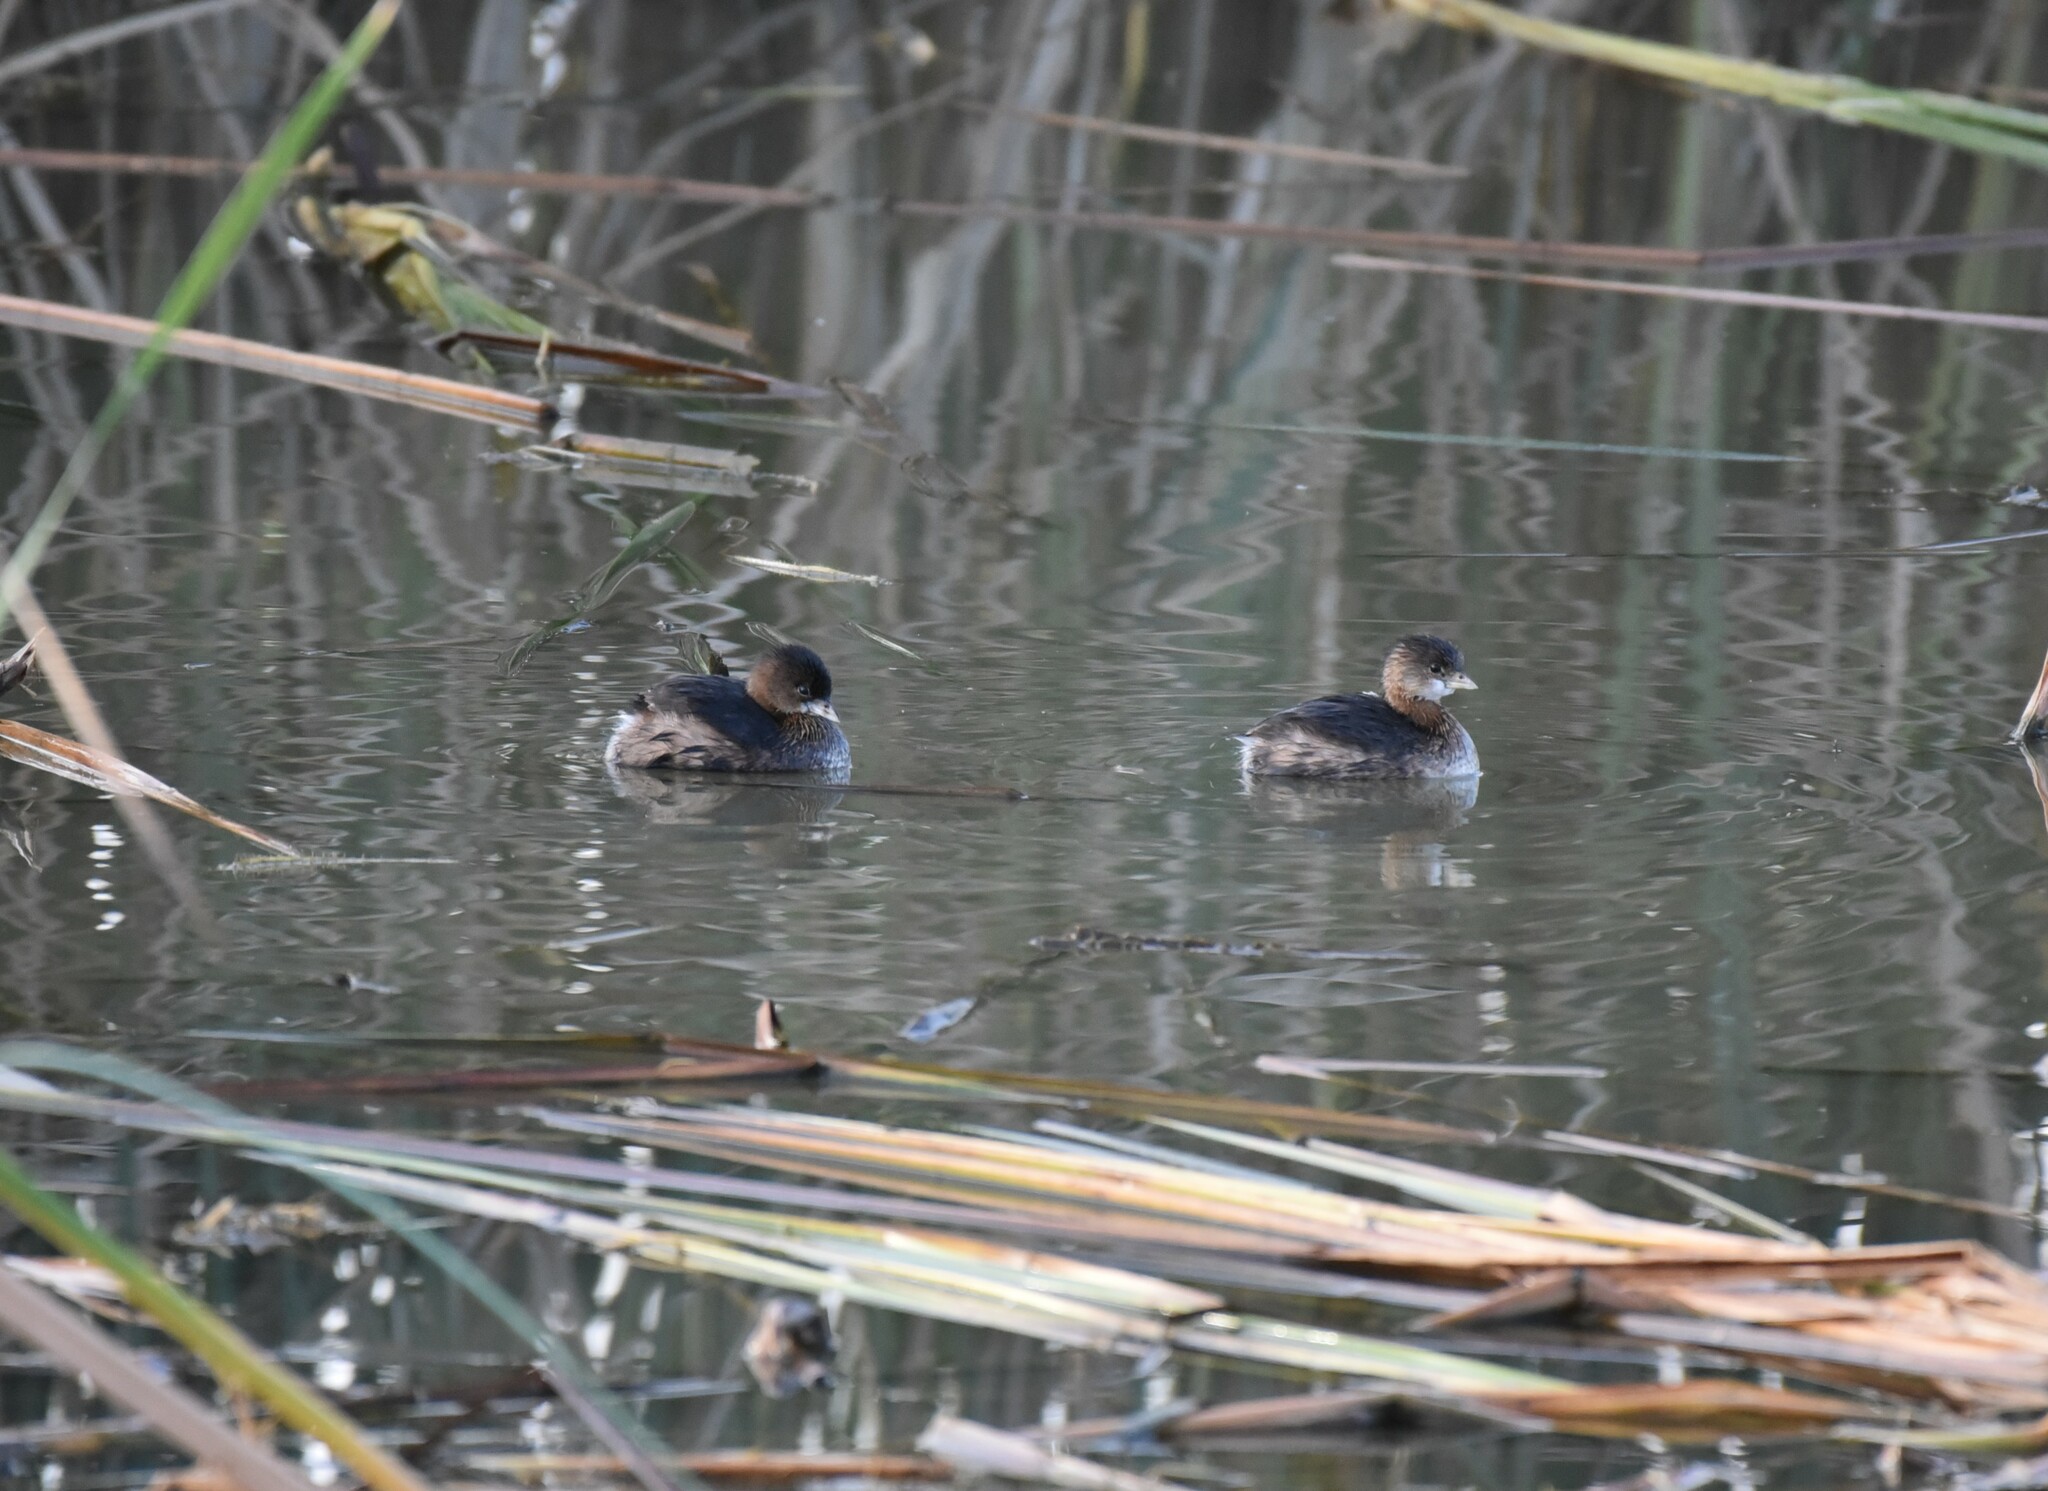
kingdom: Animalia
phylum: Chordata
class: Aves
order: Podicipediformes
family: Podicipedidae
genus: Podilymbus
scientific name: Podilymbus podiceps
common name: Pied-billed grebe
